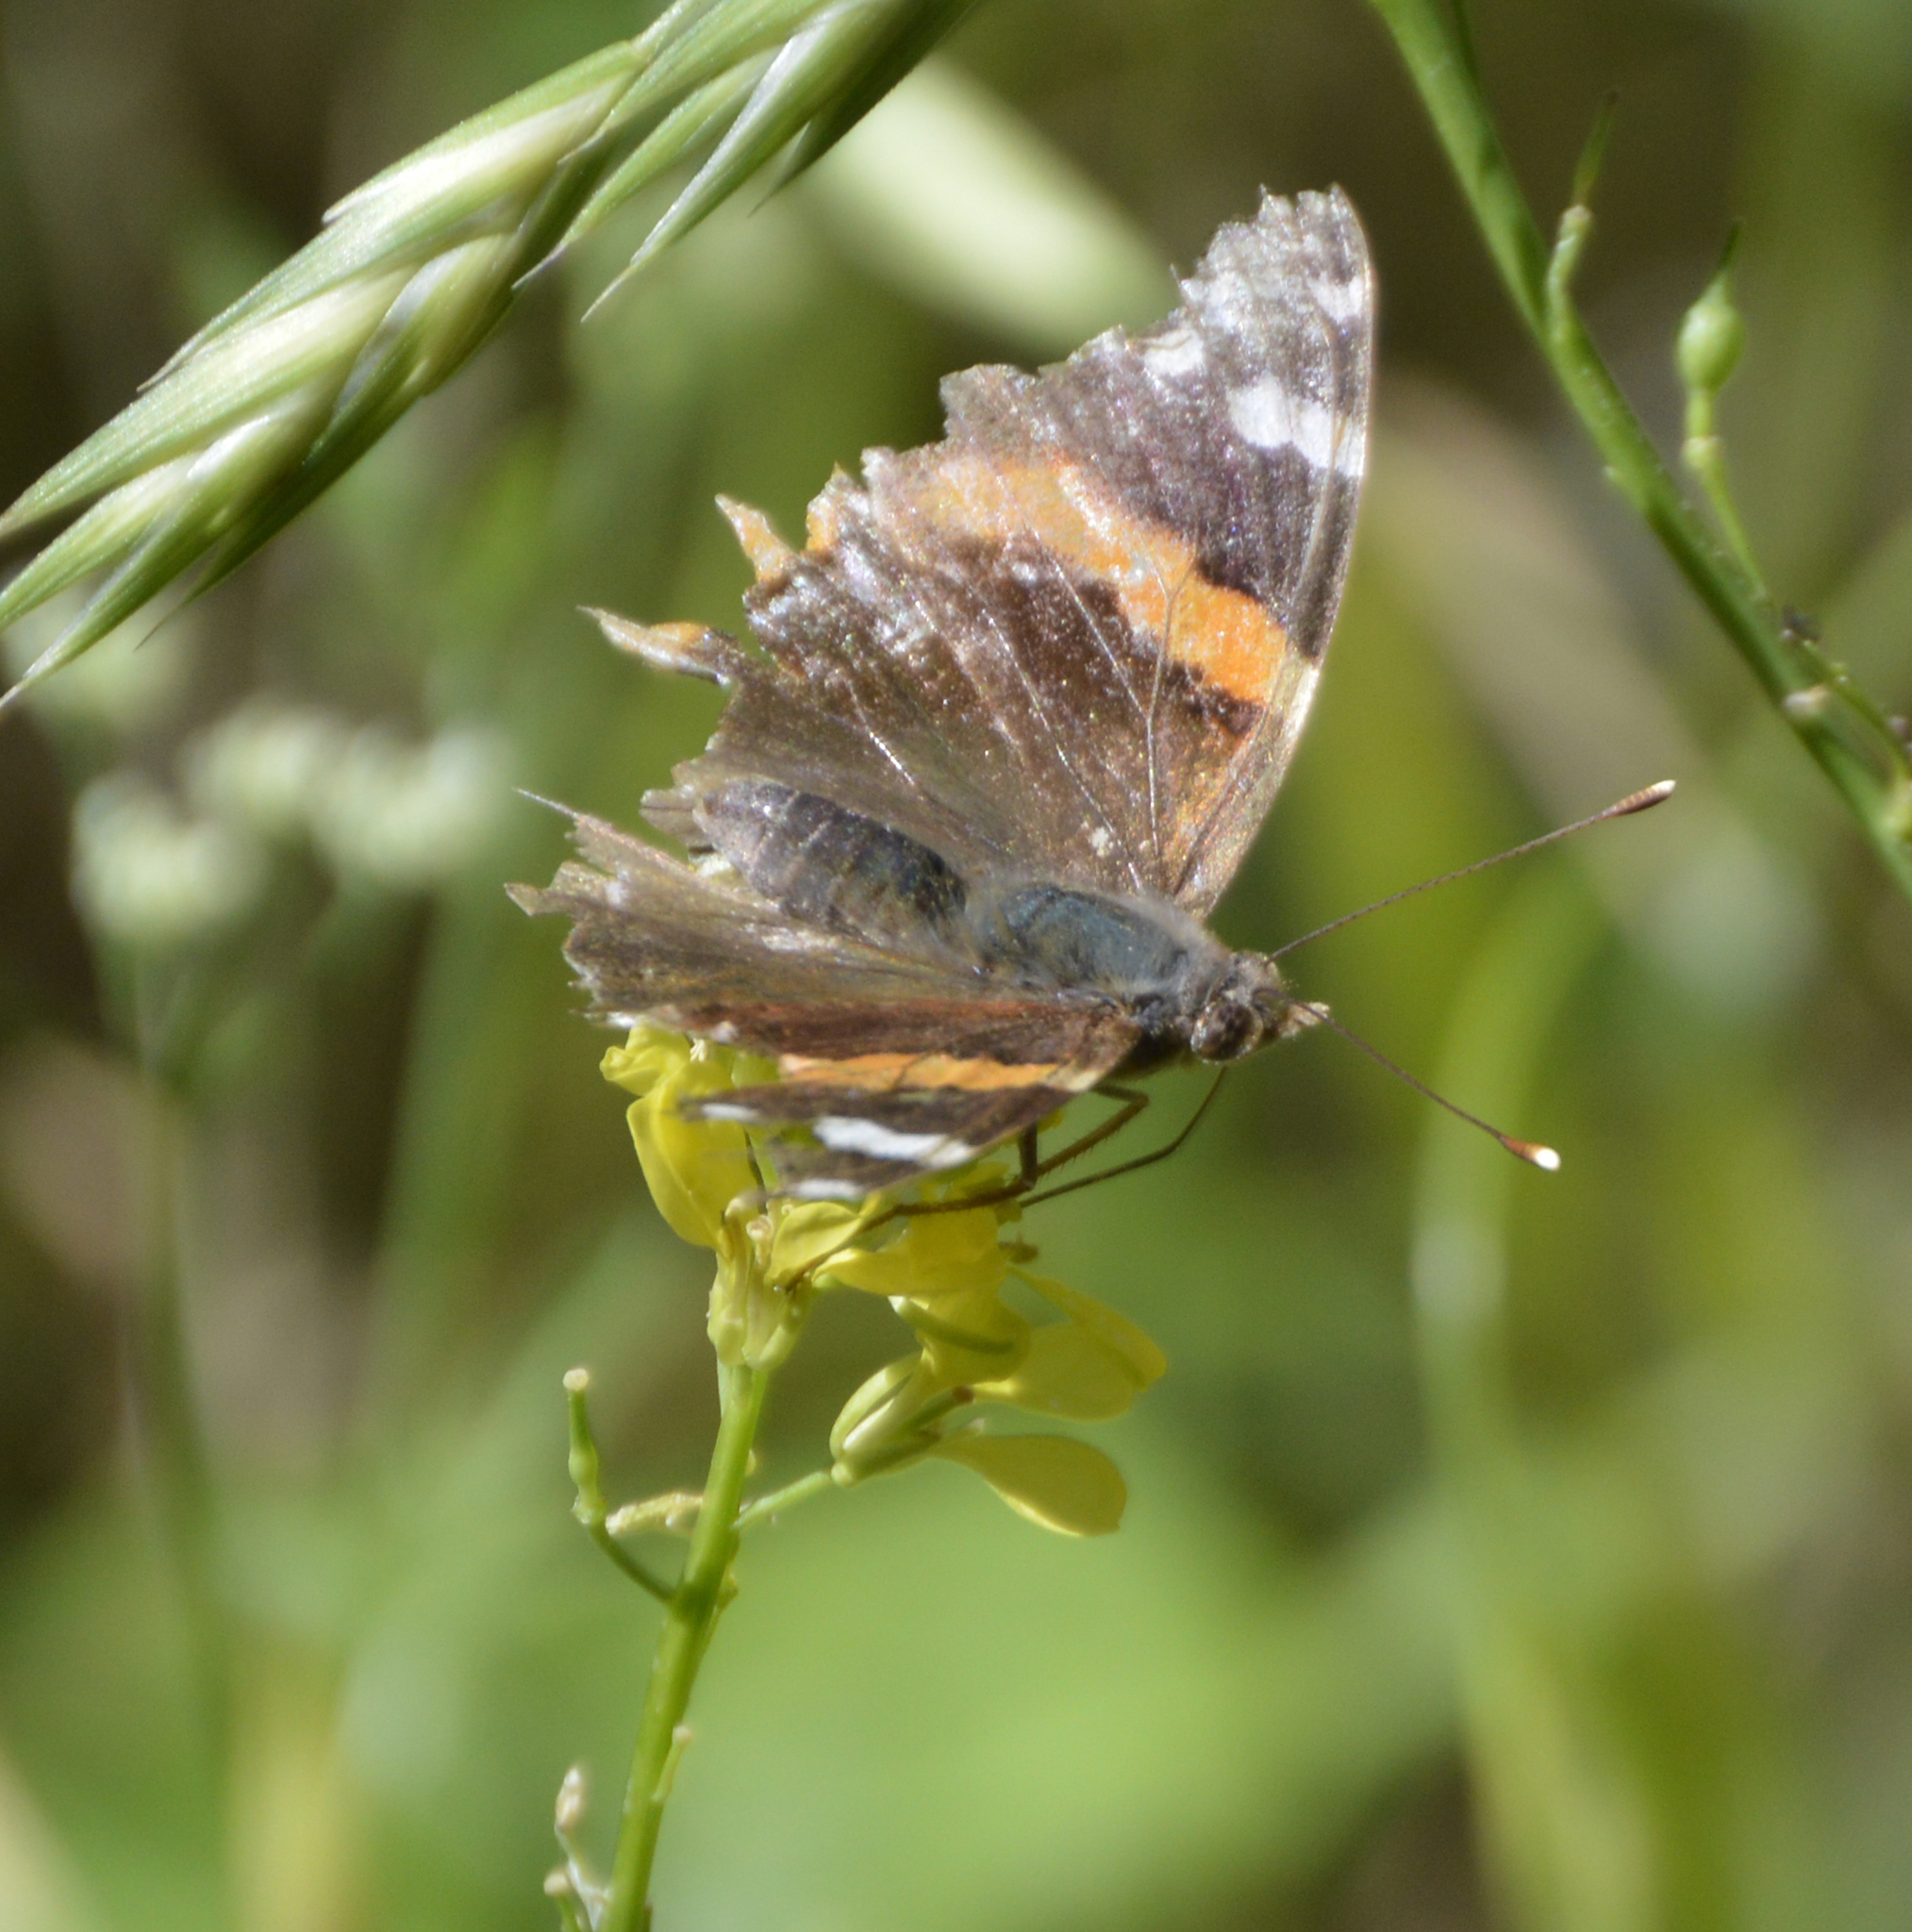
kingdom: Animalia
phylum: Arthropoda
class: Insecta
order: Lepidoptera
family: Nymphalidae
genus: Vanessa
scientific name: Vanessa atalanta
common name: Red admiral
